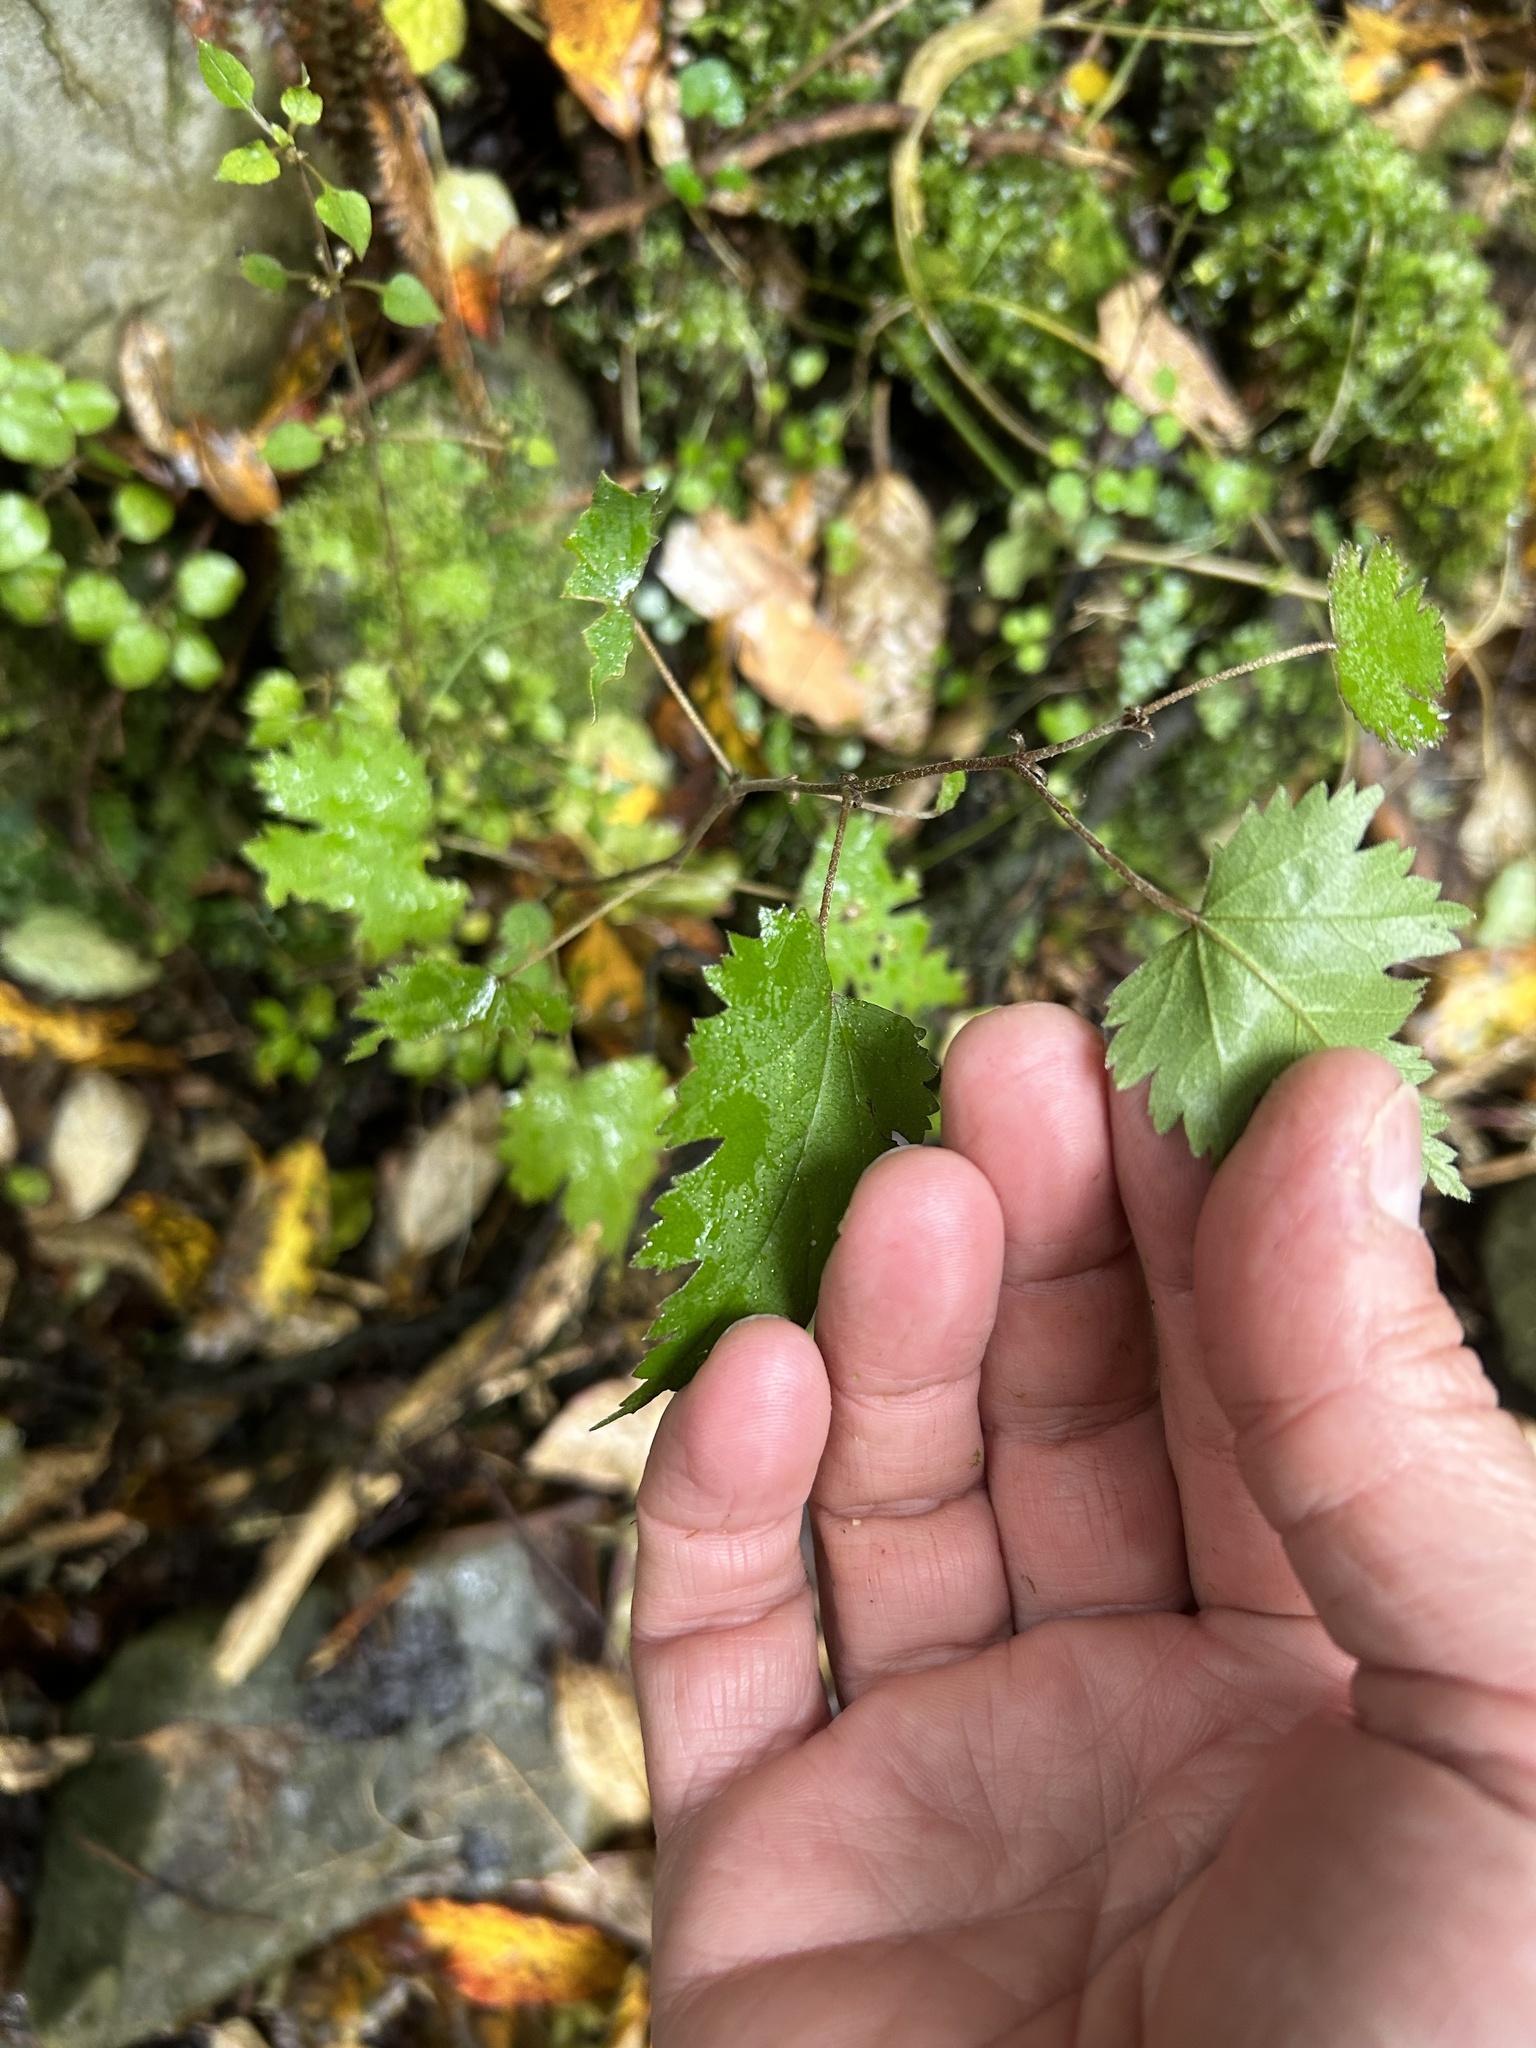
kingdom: Plantae
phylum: Tracheophyta
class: Magnoliopsida
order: Malvales
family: Malvaceae
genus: Hoheria
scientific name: Hoheria sexstylosa
